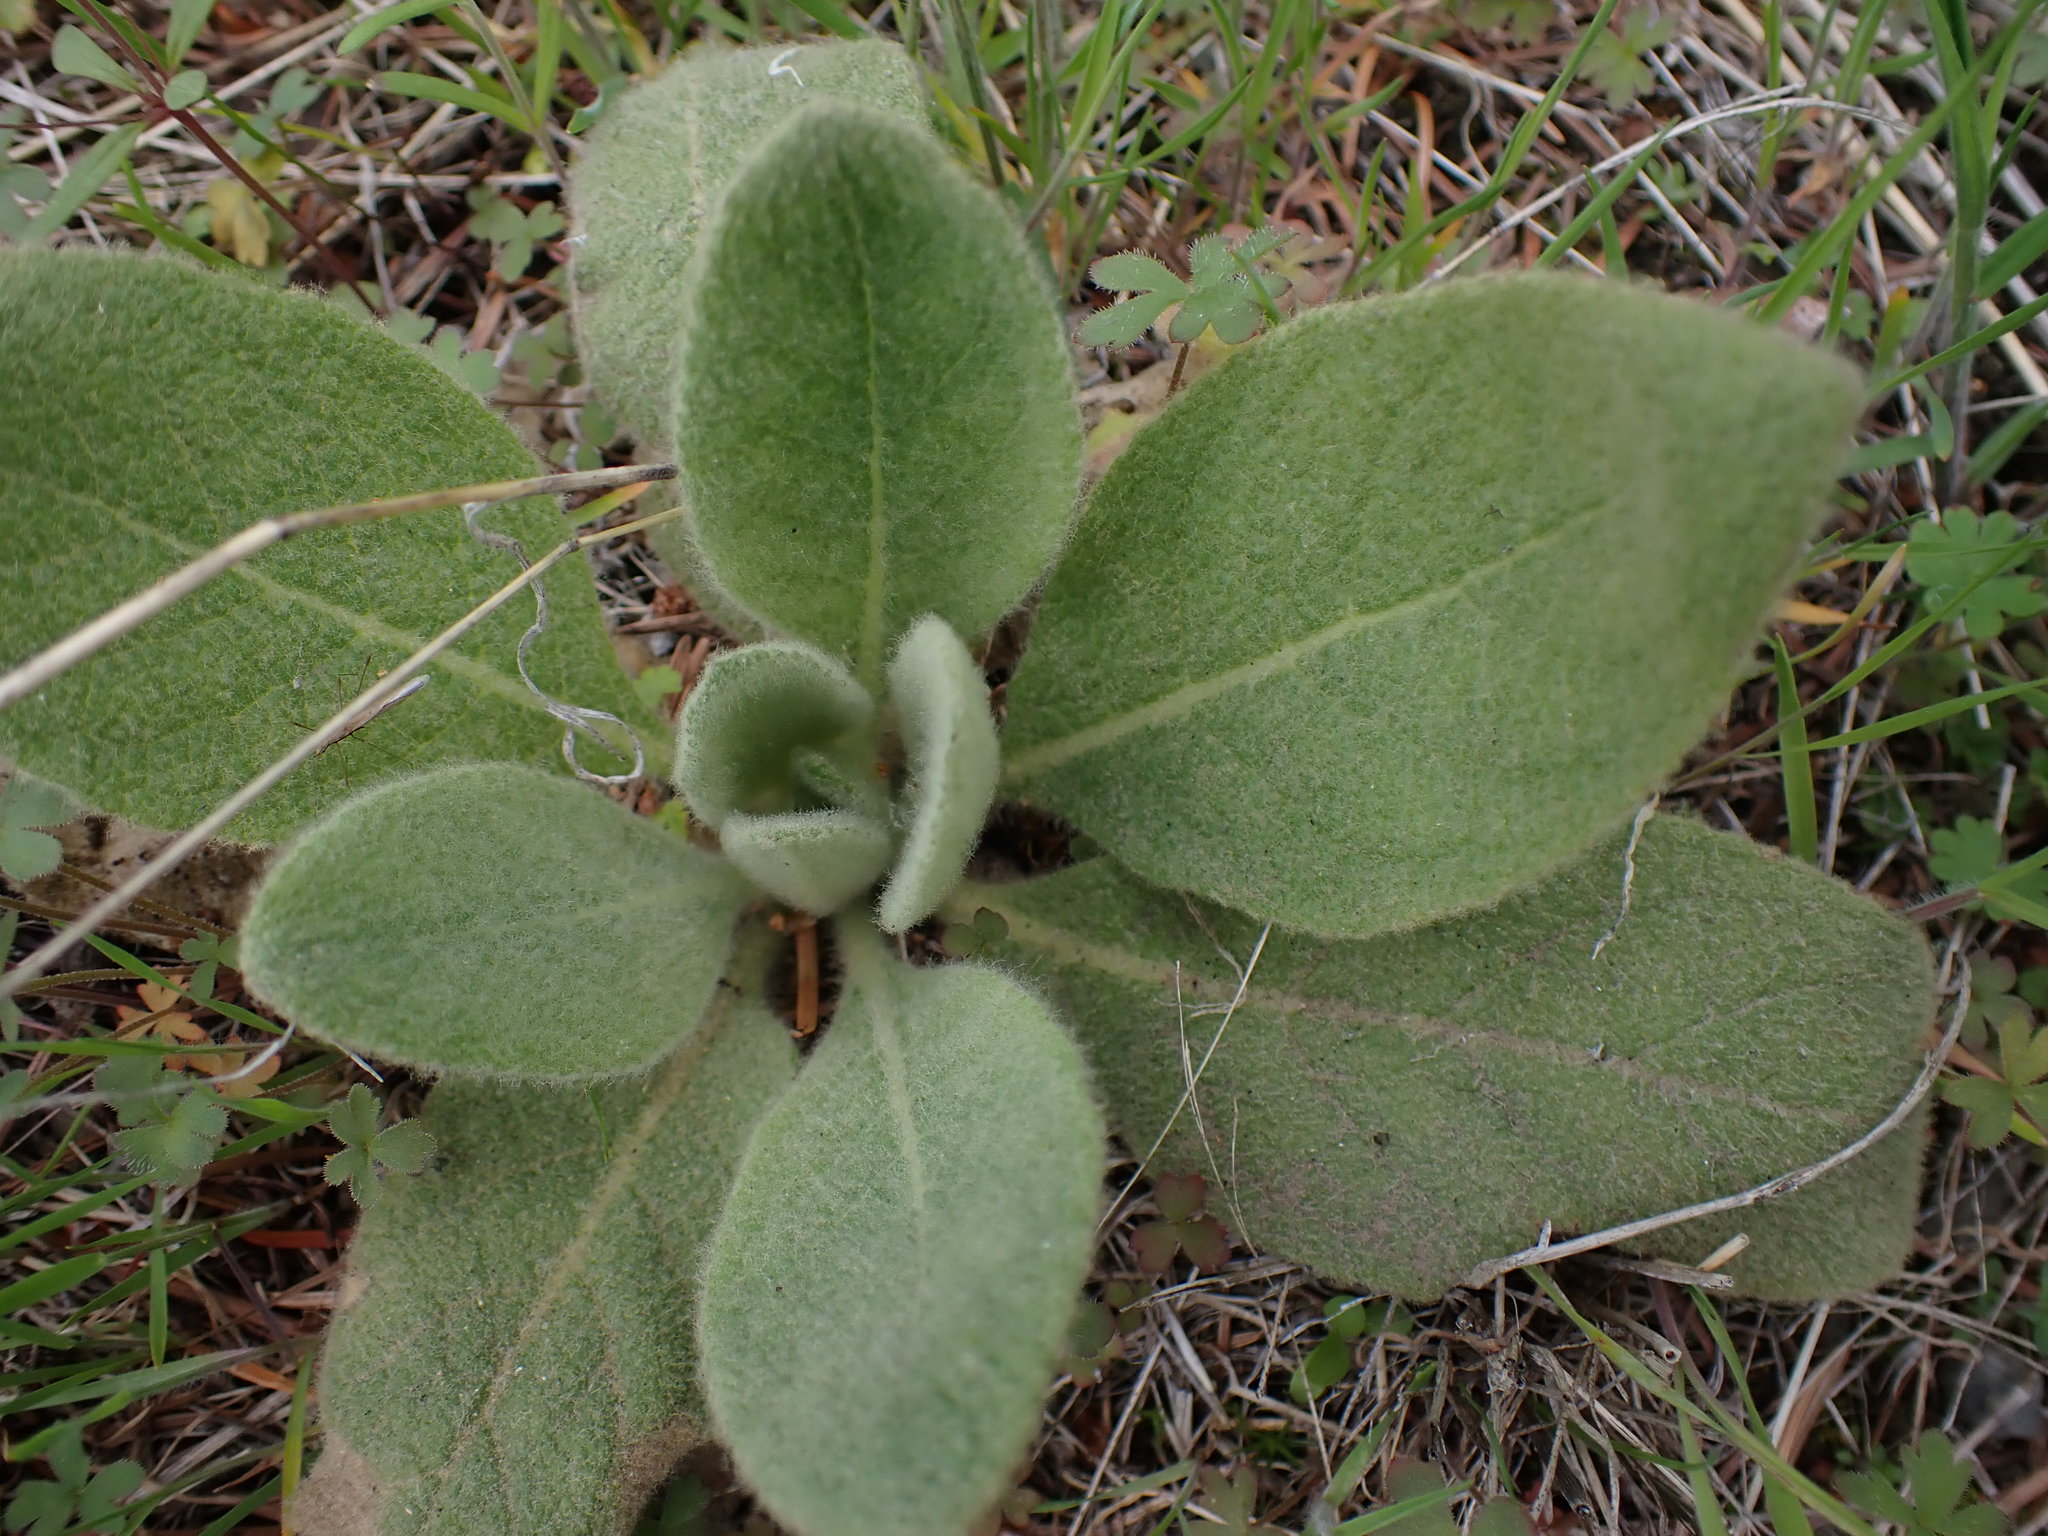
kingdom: Plantae
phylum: Tracheophyta
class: Magnoliopsida
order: Lamiales
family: Scrophulariaceae
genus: Verbascum
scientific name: Verbascum thapsus
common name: Common mullein
